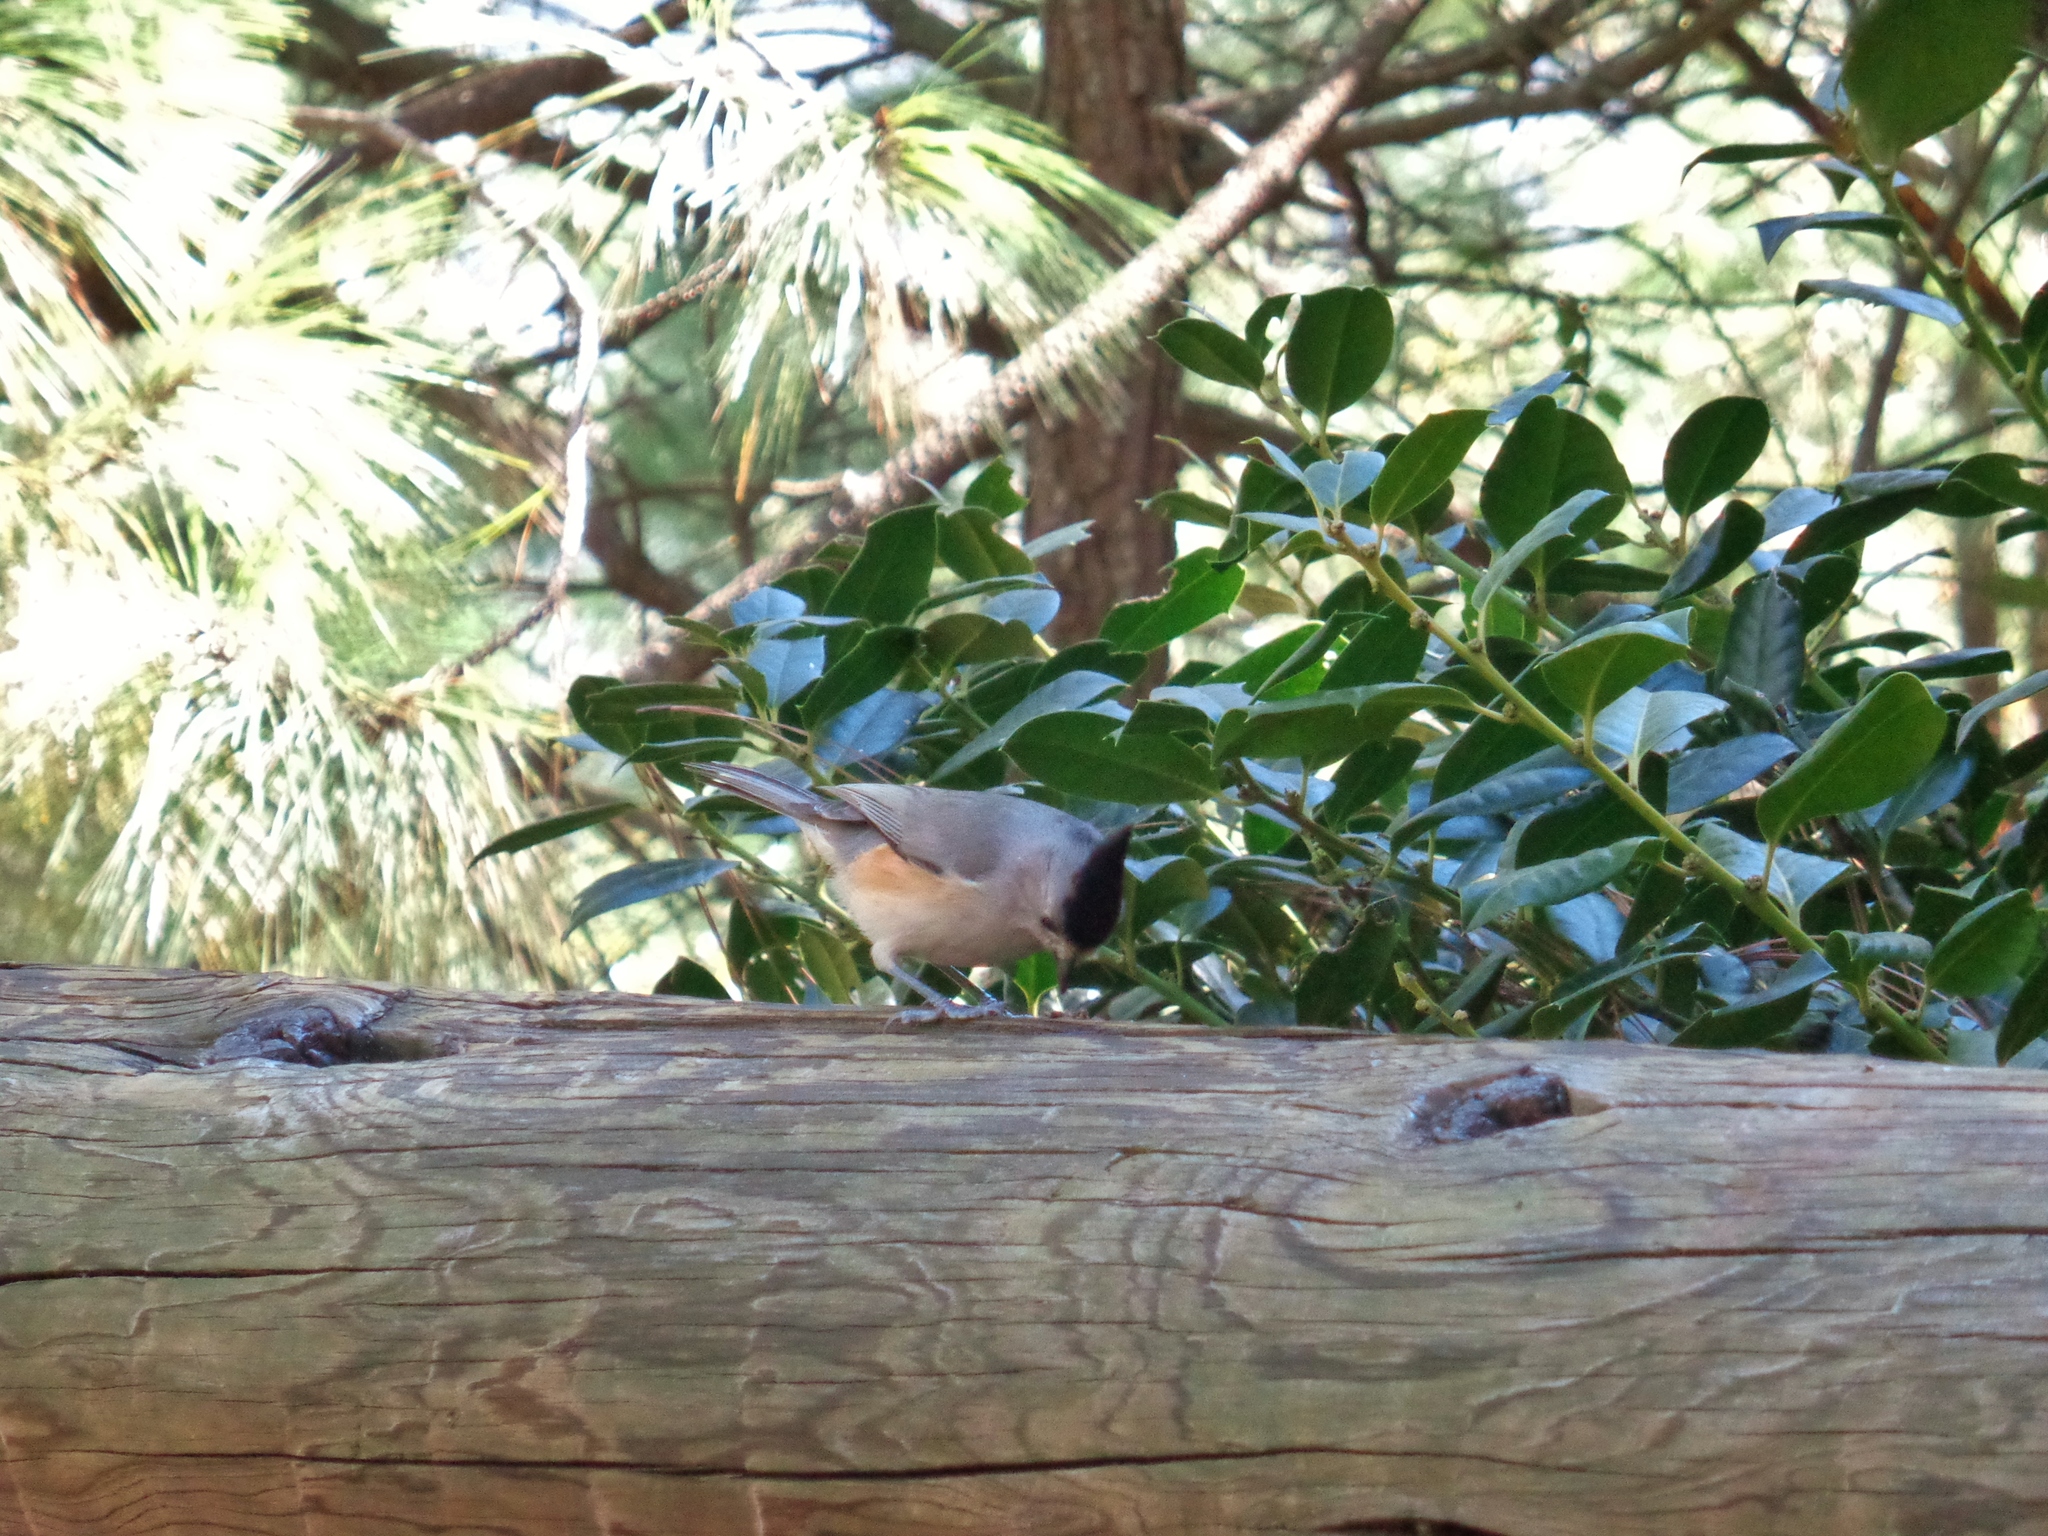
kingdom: Animalia
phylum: Chordata
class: Aves
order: Passeriformes
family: Paridae
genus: Baeolophus
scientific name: Baeolophus atricristatus
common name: Black-crested titmouse
